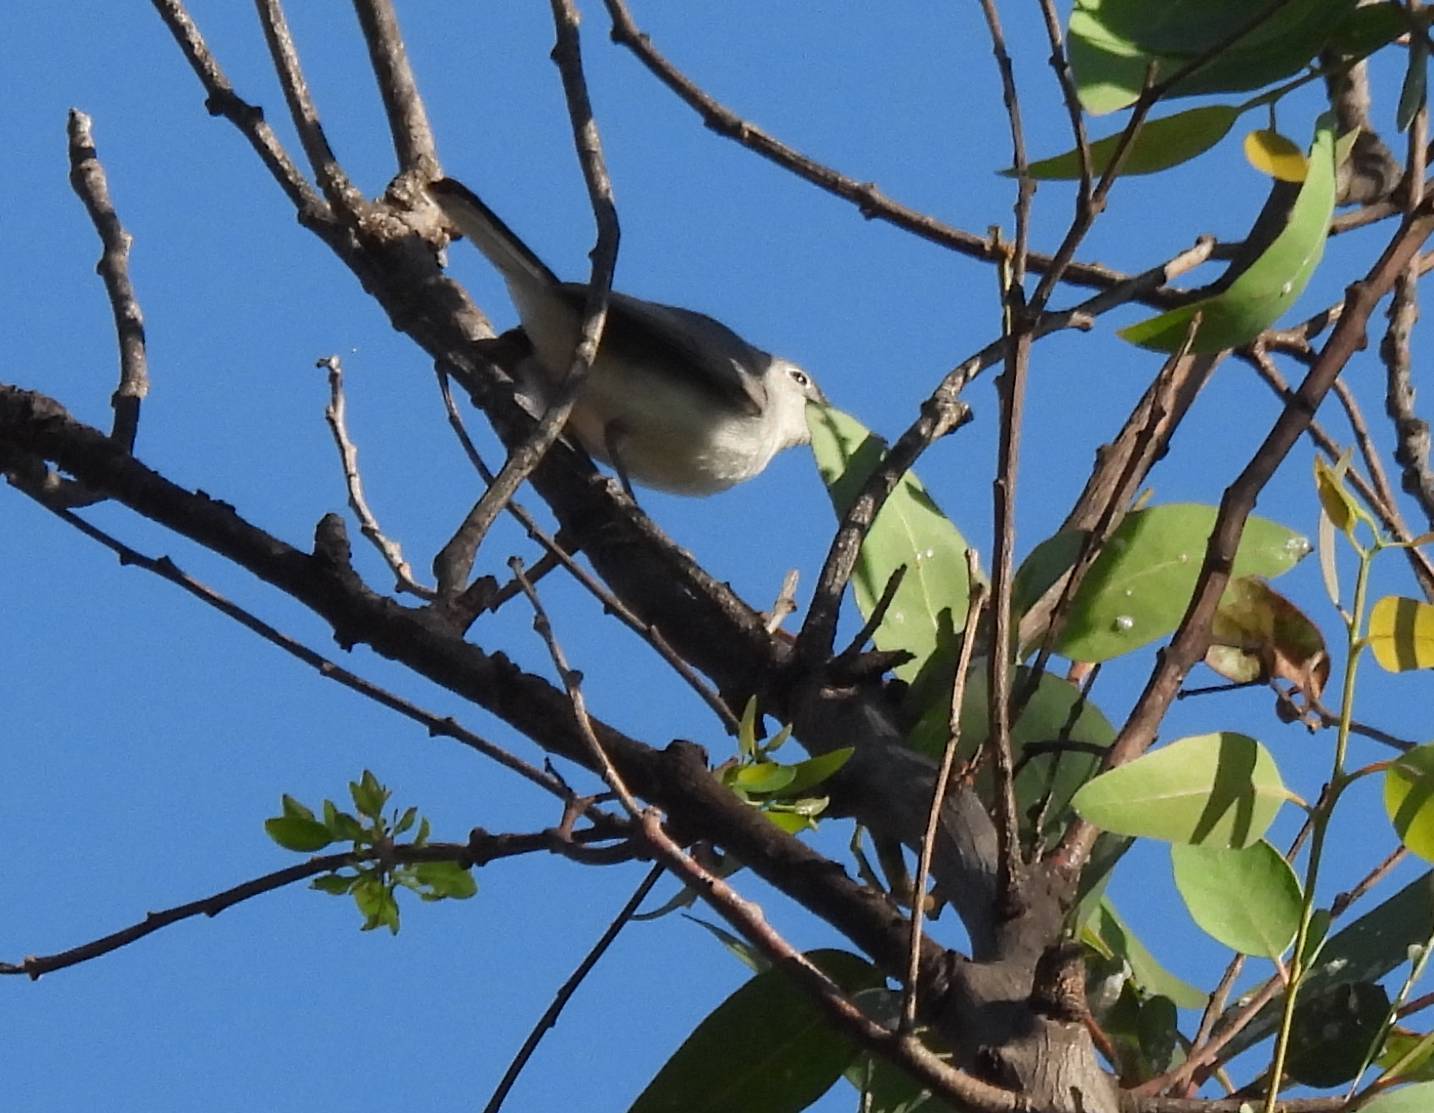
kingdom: Animalia
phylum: Chordata
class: Aves
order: Passeriformes
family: Polioptilidae
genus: Polioptila
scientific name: Polioptila caerulea
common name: Blue-gray gnatcatcher
